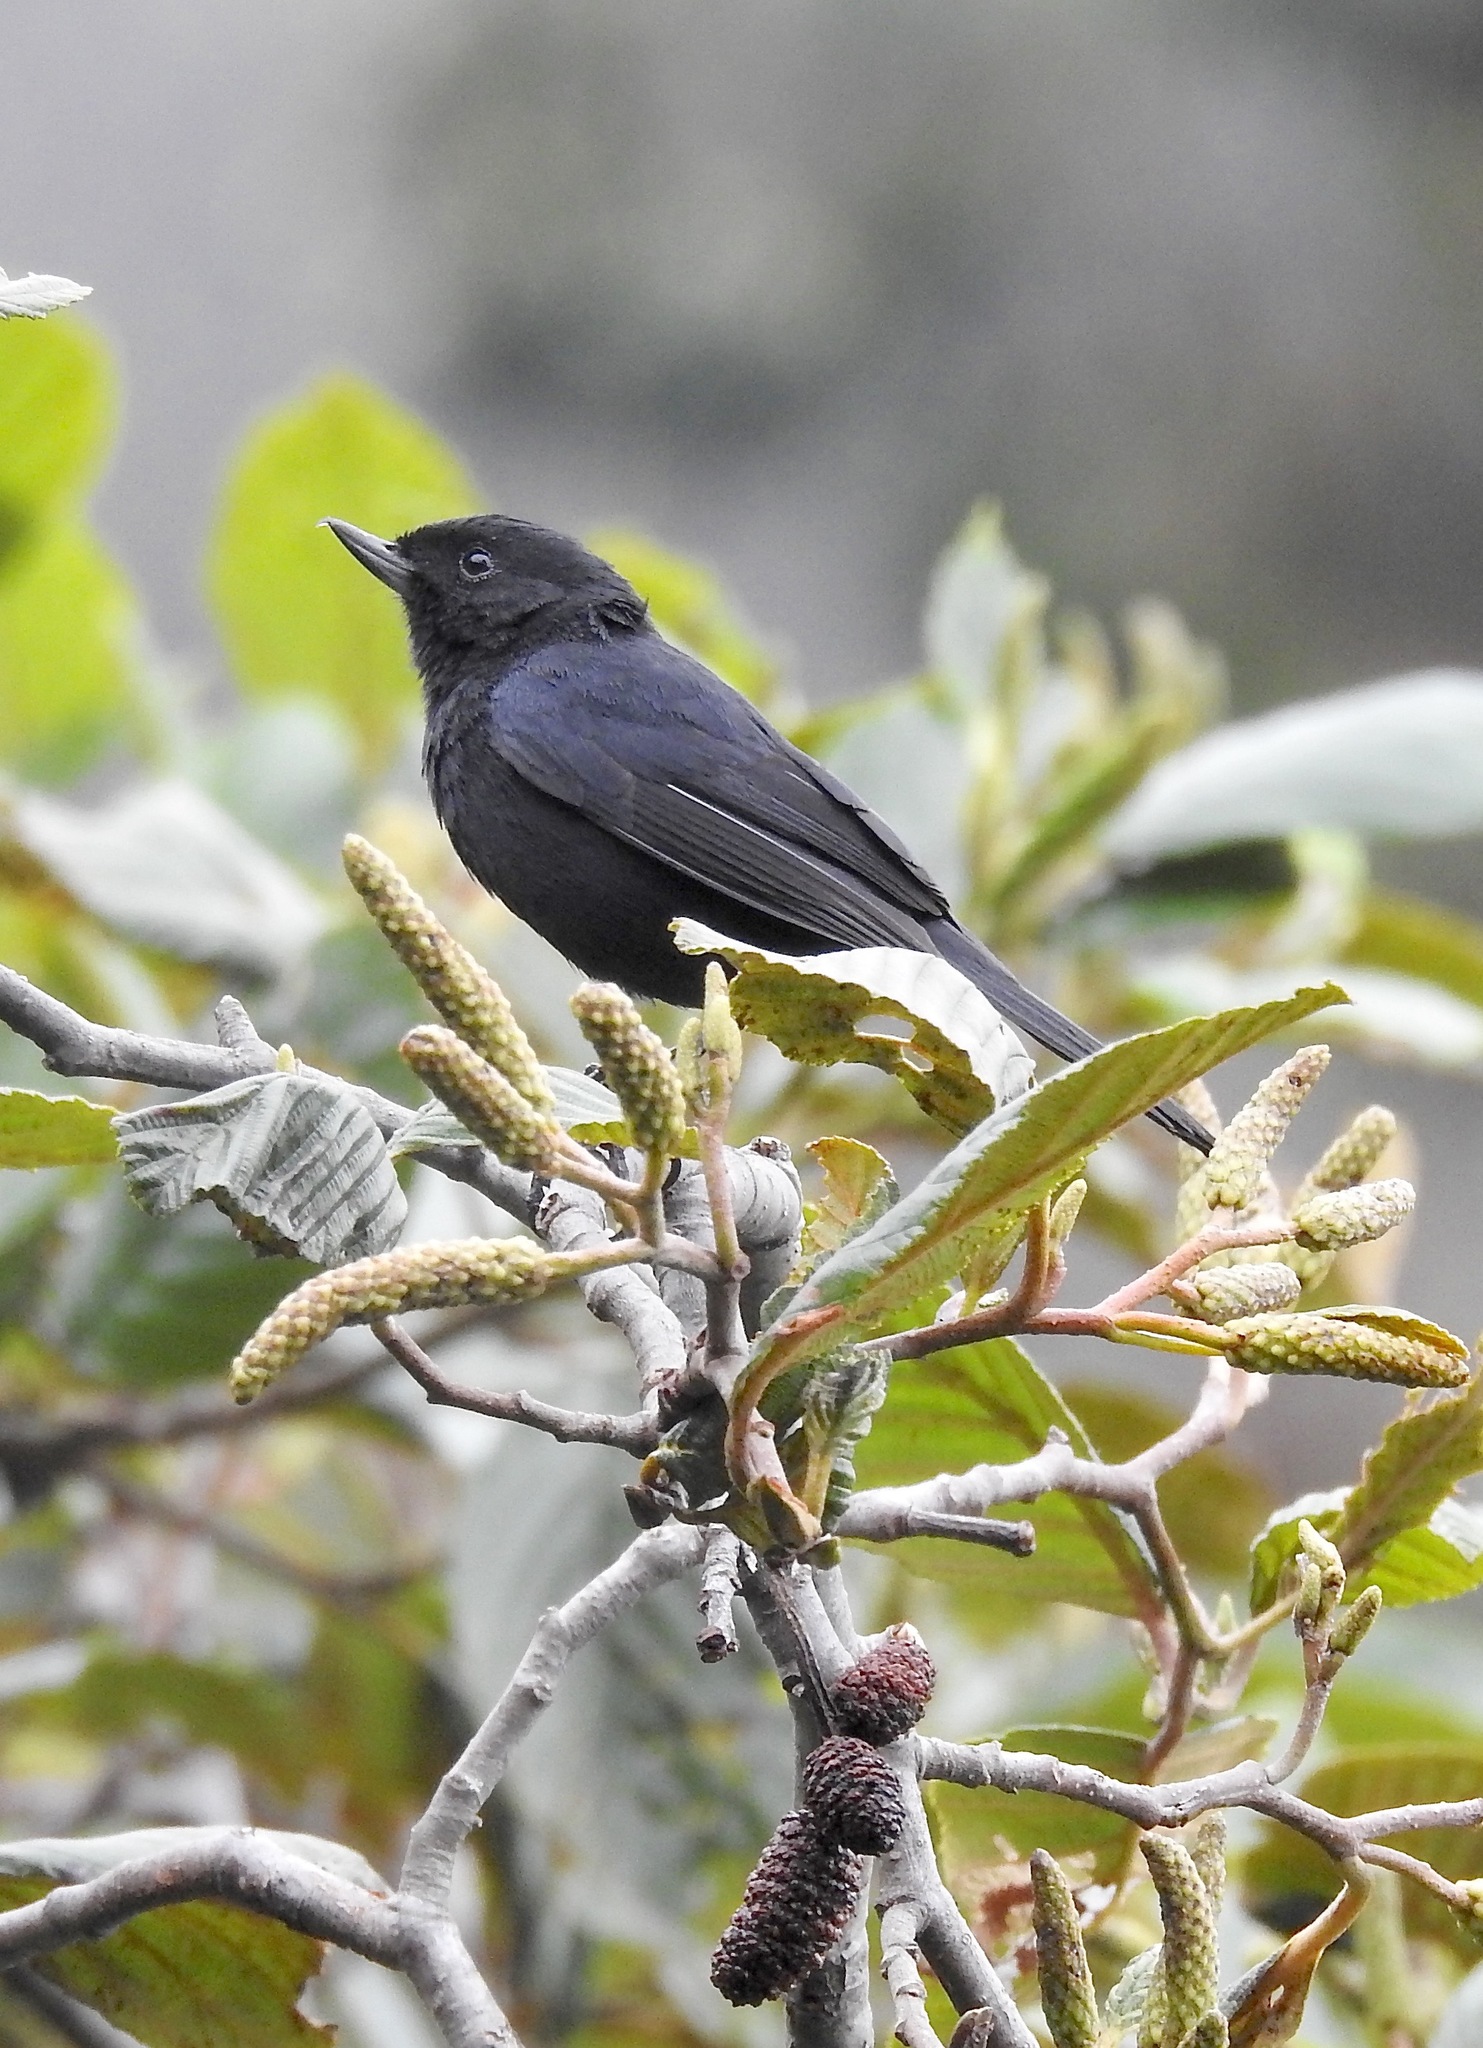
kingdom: Animalia
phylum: Chordata
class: Aves
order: Passeriformes
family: Thraupidae
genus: Diglossa
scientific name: Diglossa humeralis
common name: Black flowerpiercer
